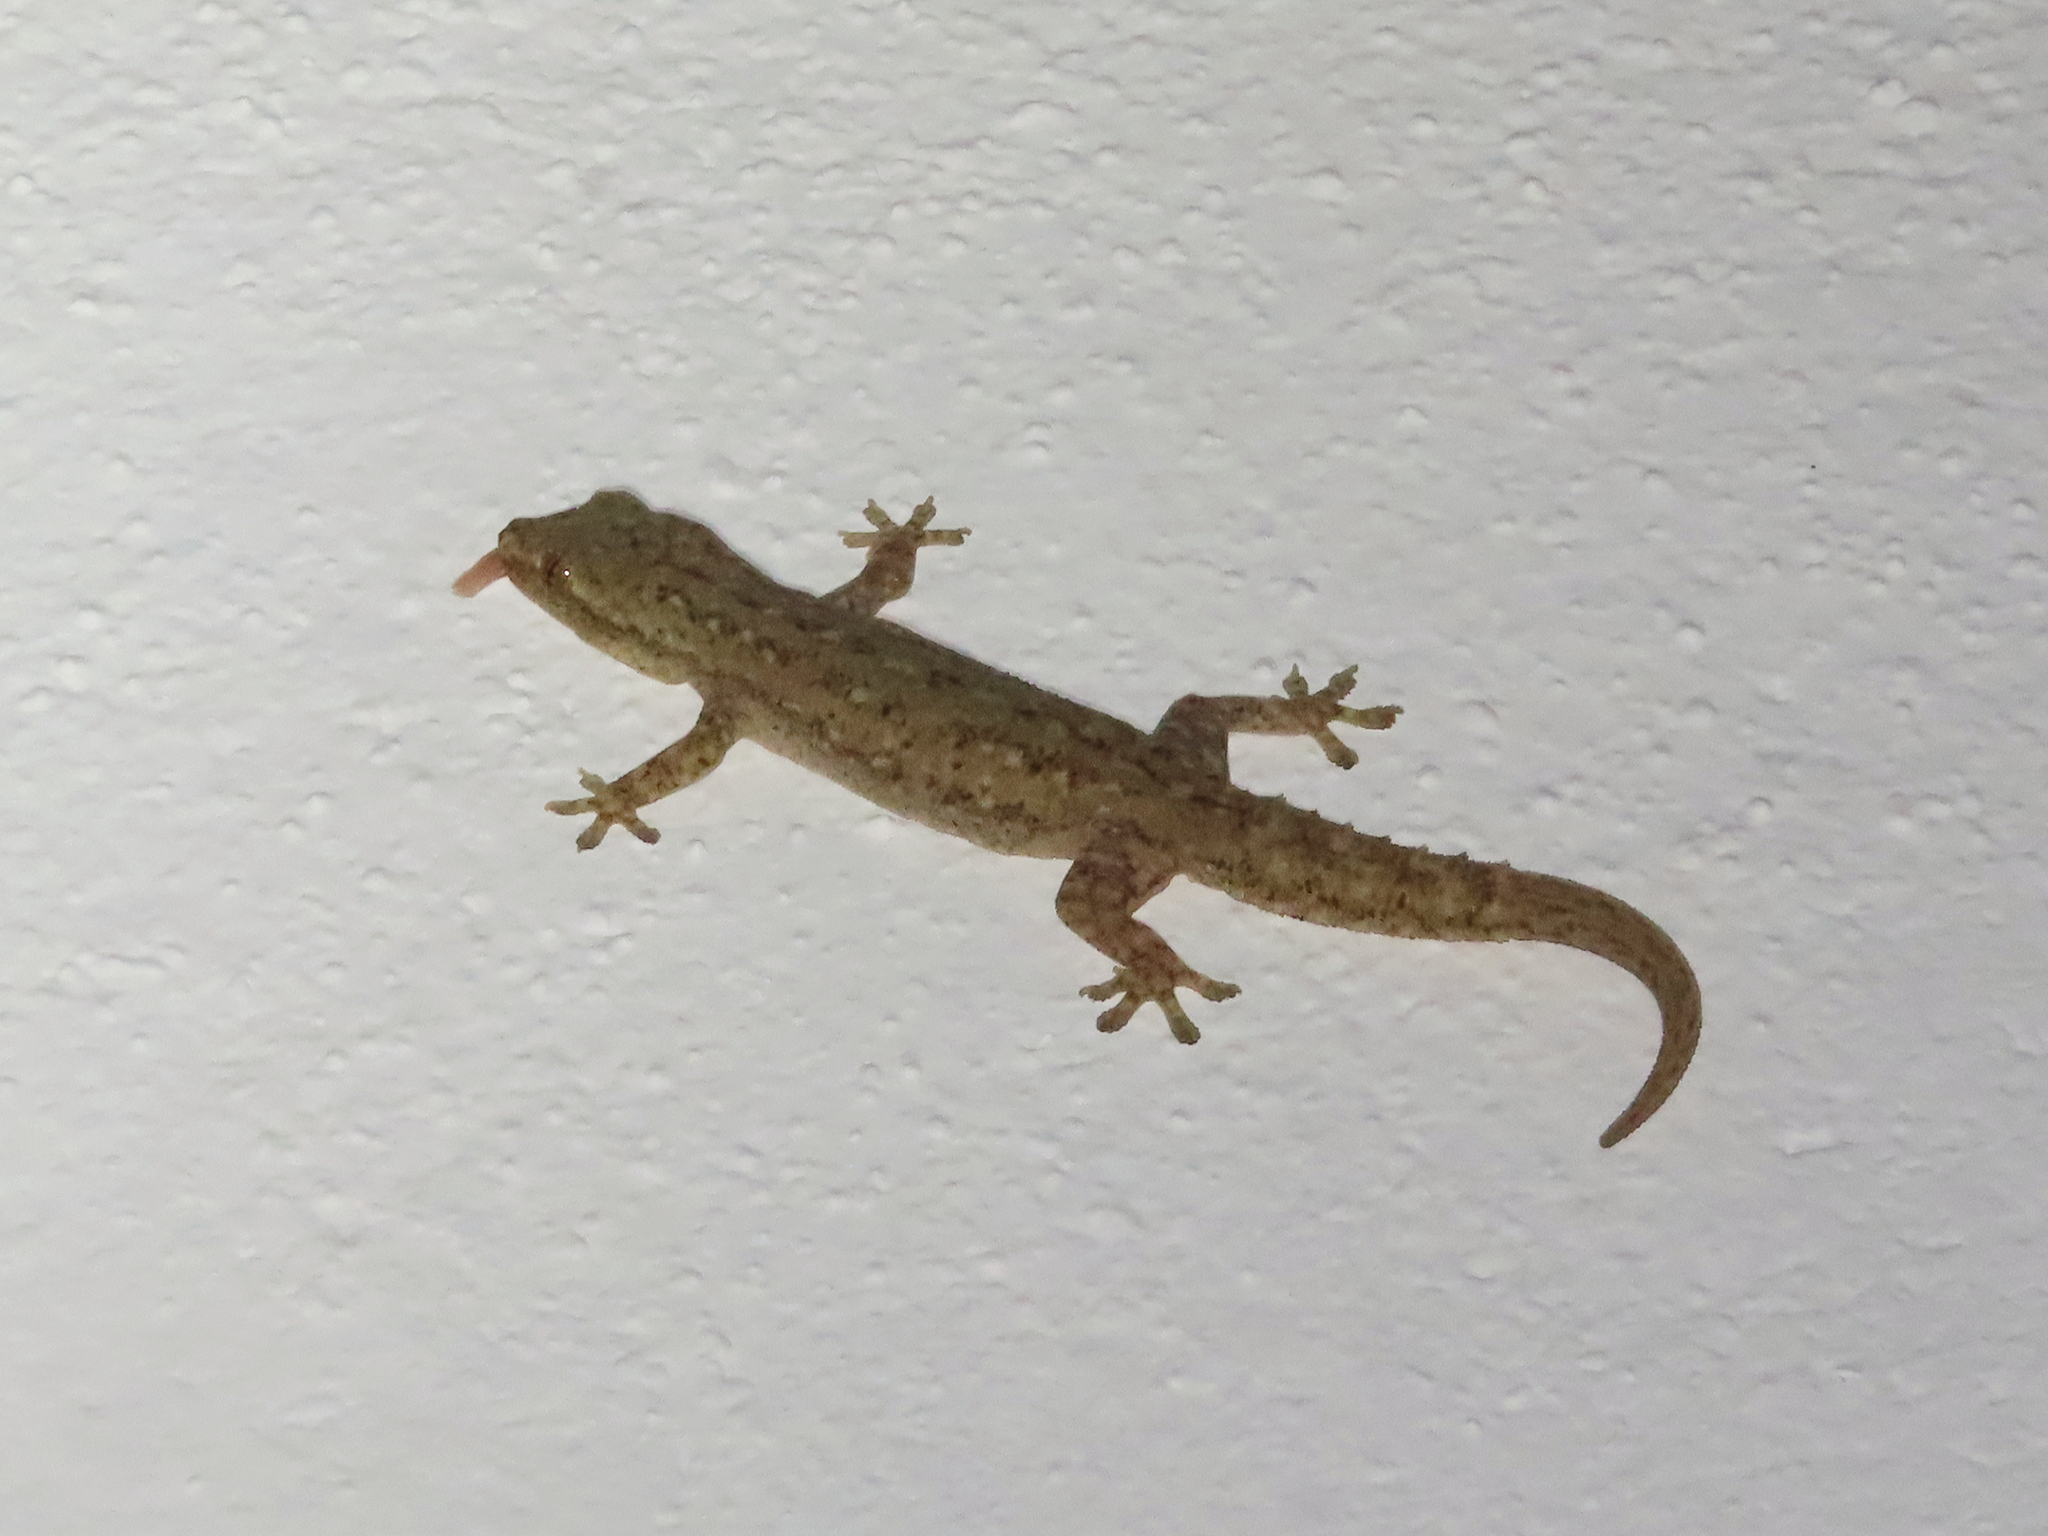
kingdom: Animalia
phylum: Chordata
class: Squamata
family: Gekkonidae
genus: Hemidactylus
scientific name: Hemidactylus frenatus
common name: Common house gecko
